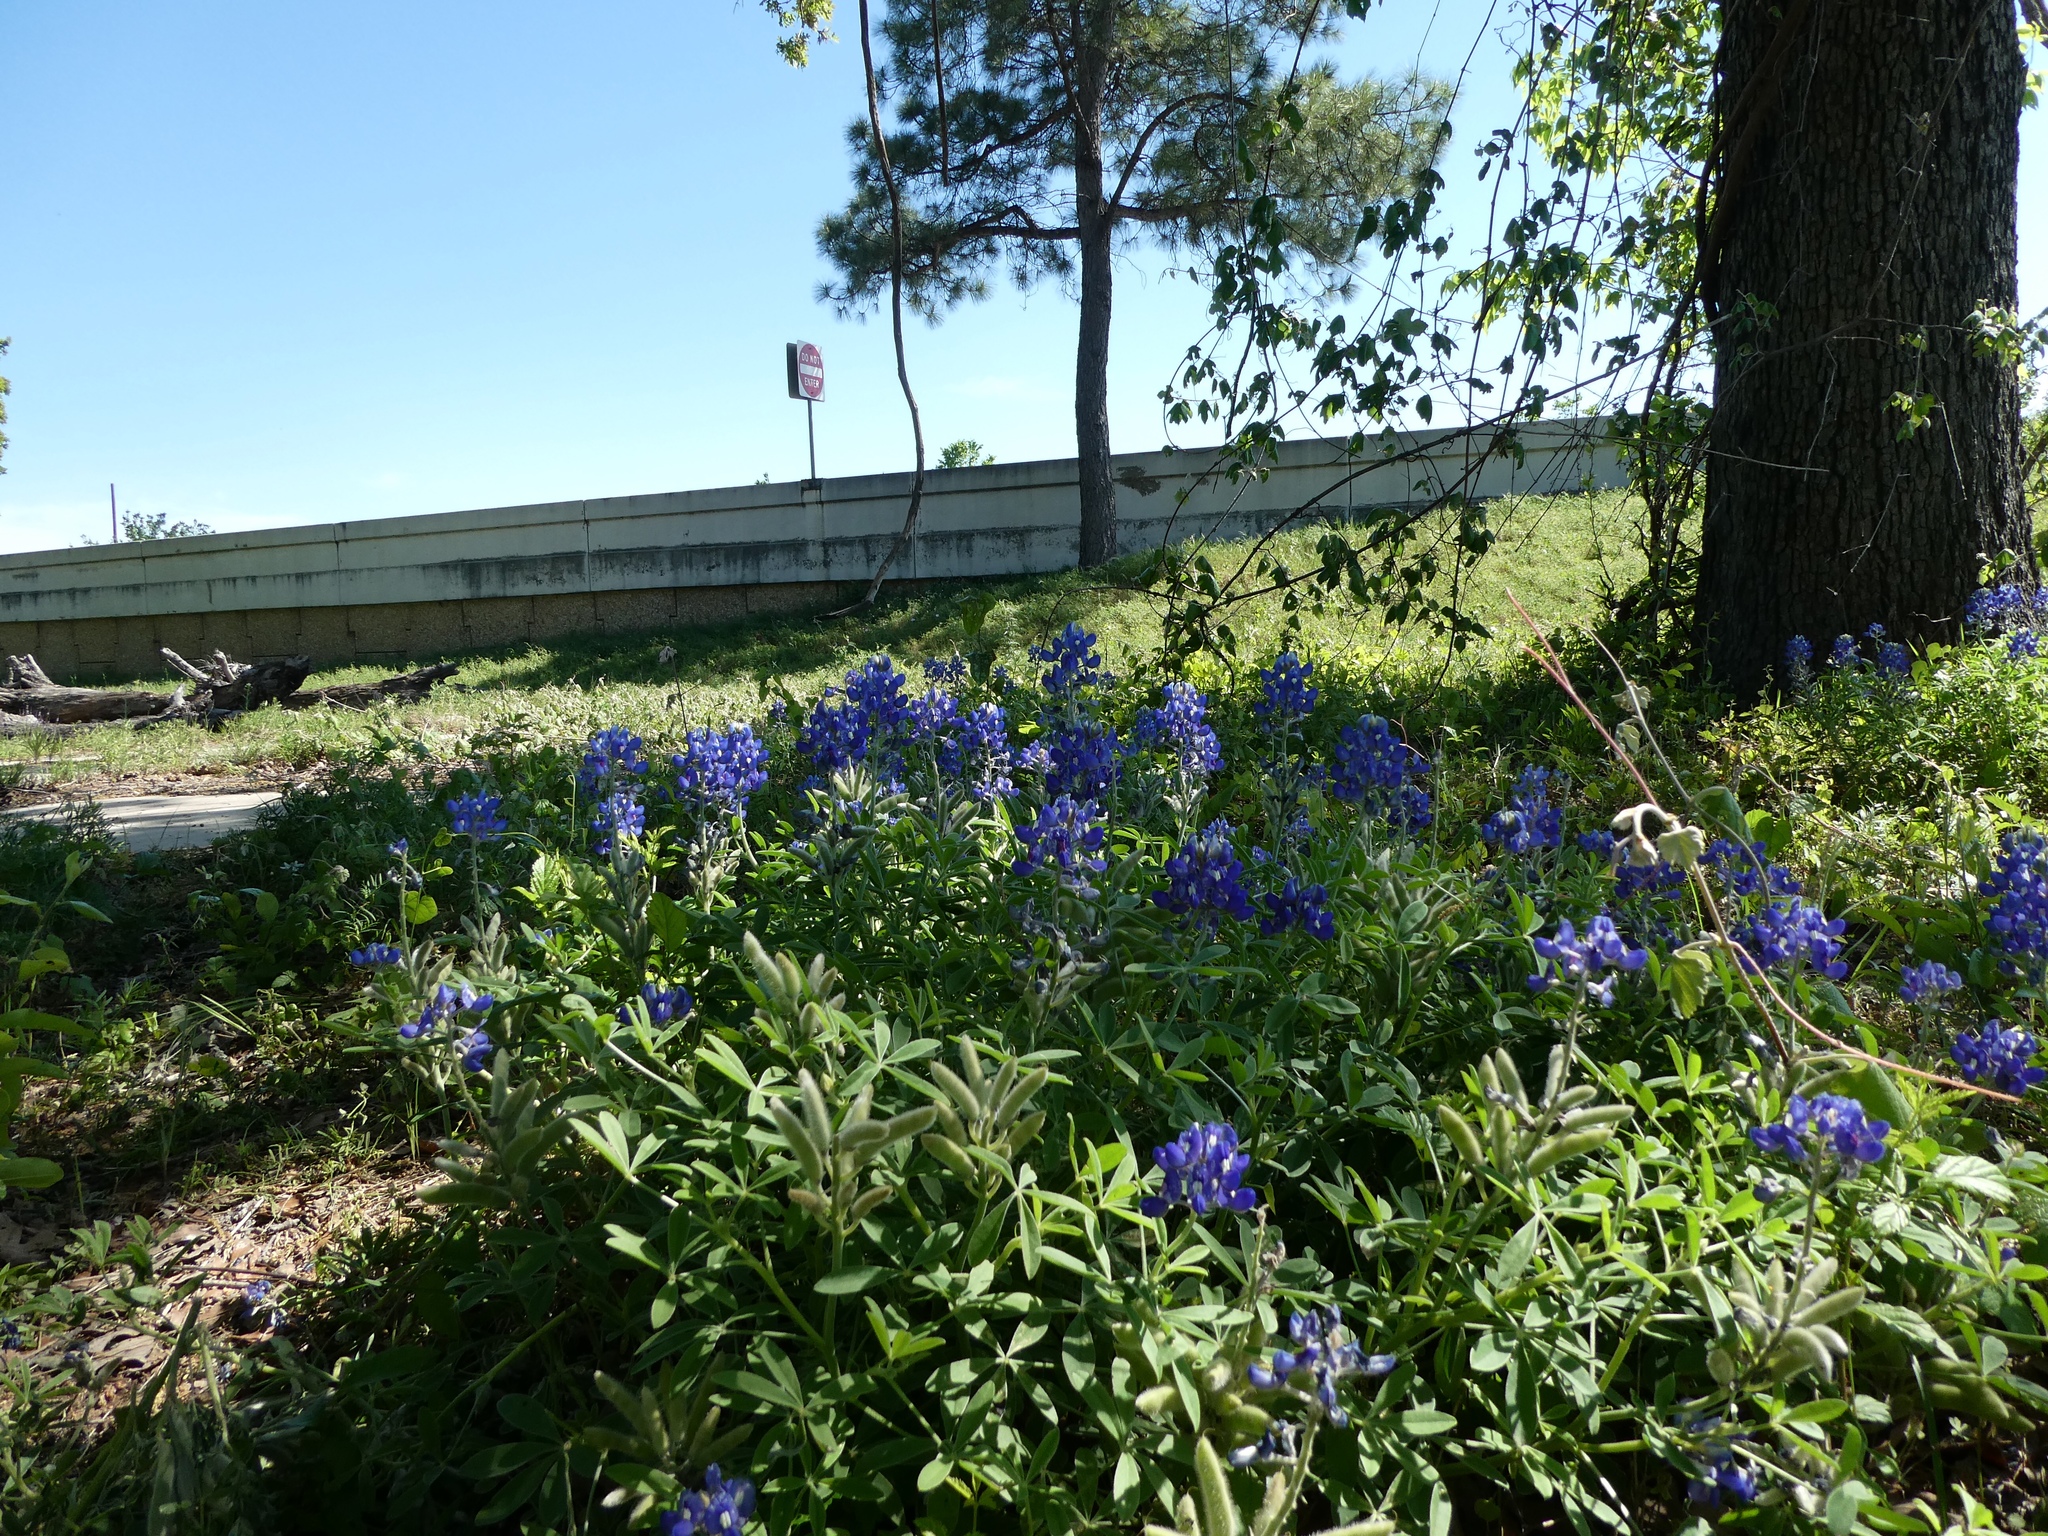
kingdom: Plantae
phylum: Tracheophyta
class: Magnoliopsida
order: Fabales
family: Fabaceae
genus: Lupinus
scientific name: Lupinus texensis
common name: Texas bluebonnet
